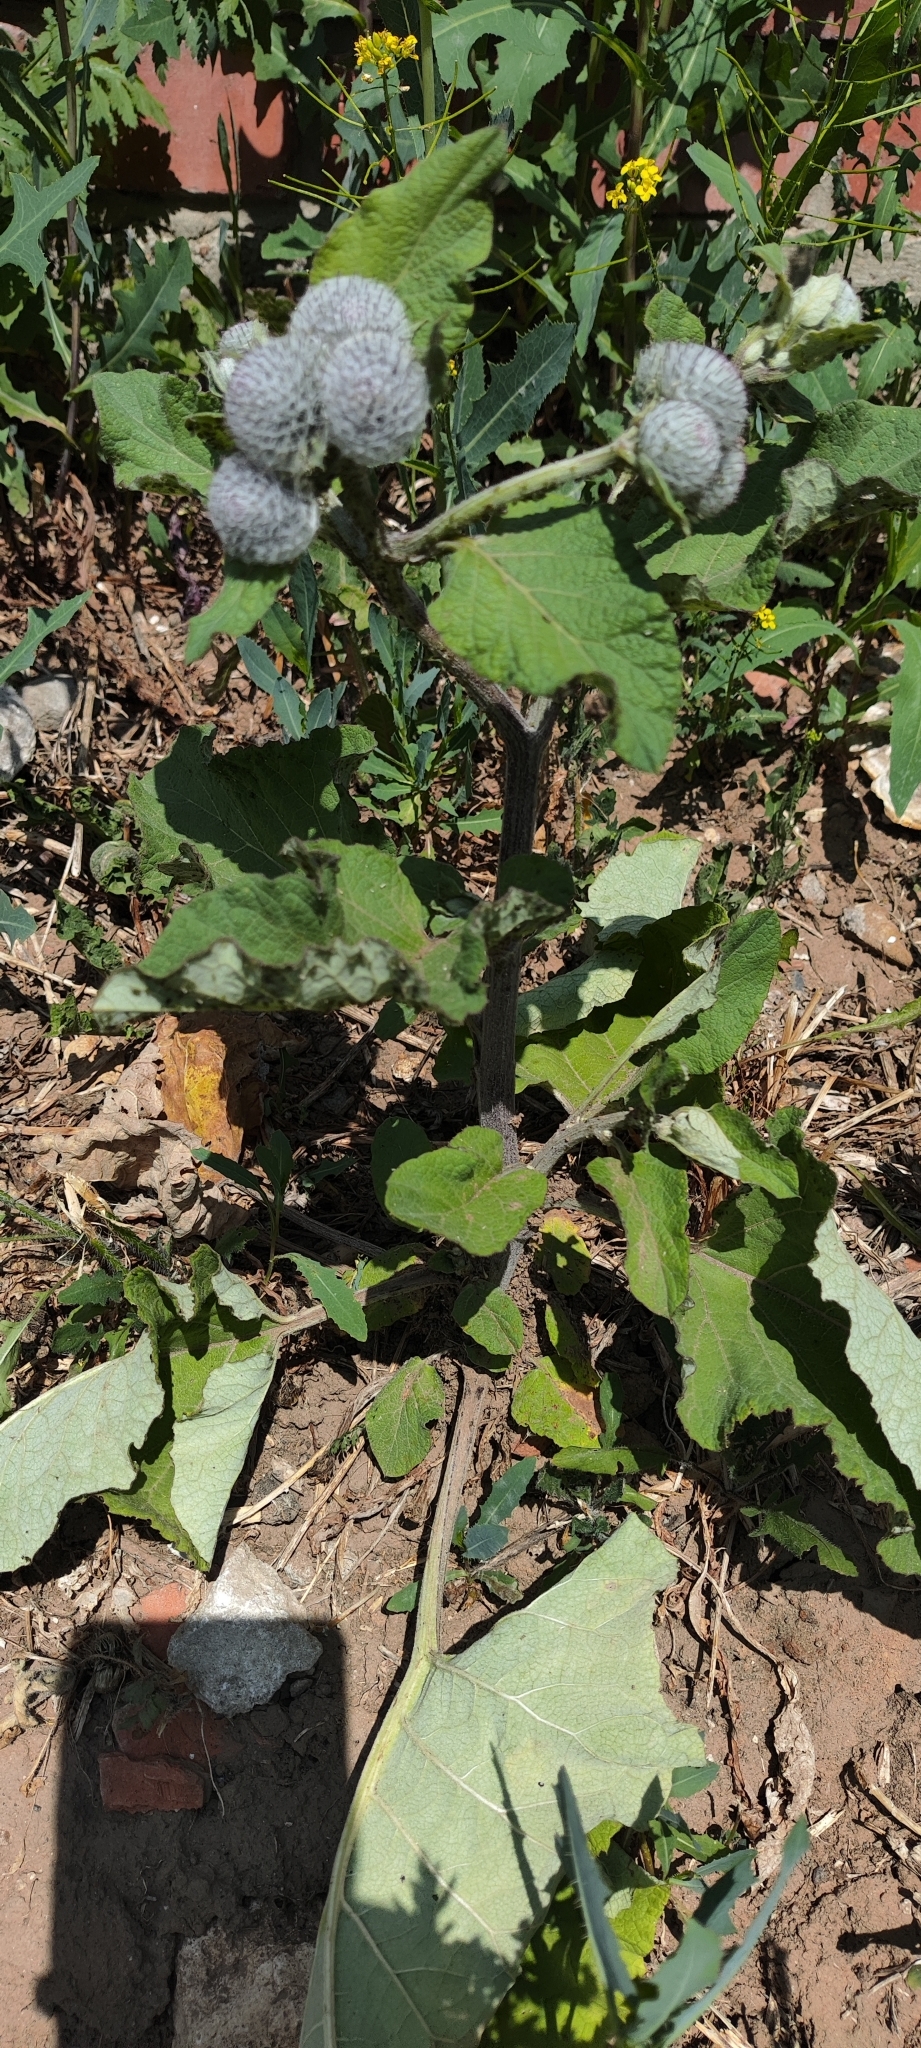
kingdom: Plantae
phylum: Tracheophyta
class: Magnoliopsida
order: Asterales
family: Asteraceae
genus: Arctium
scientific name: Arctium tomentosum
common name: Woolly burdock
